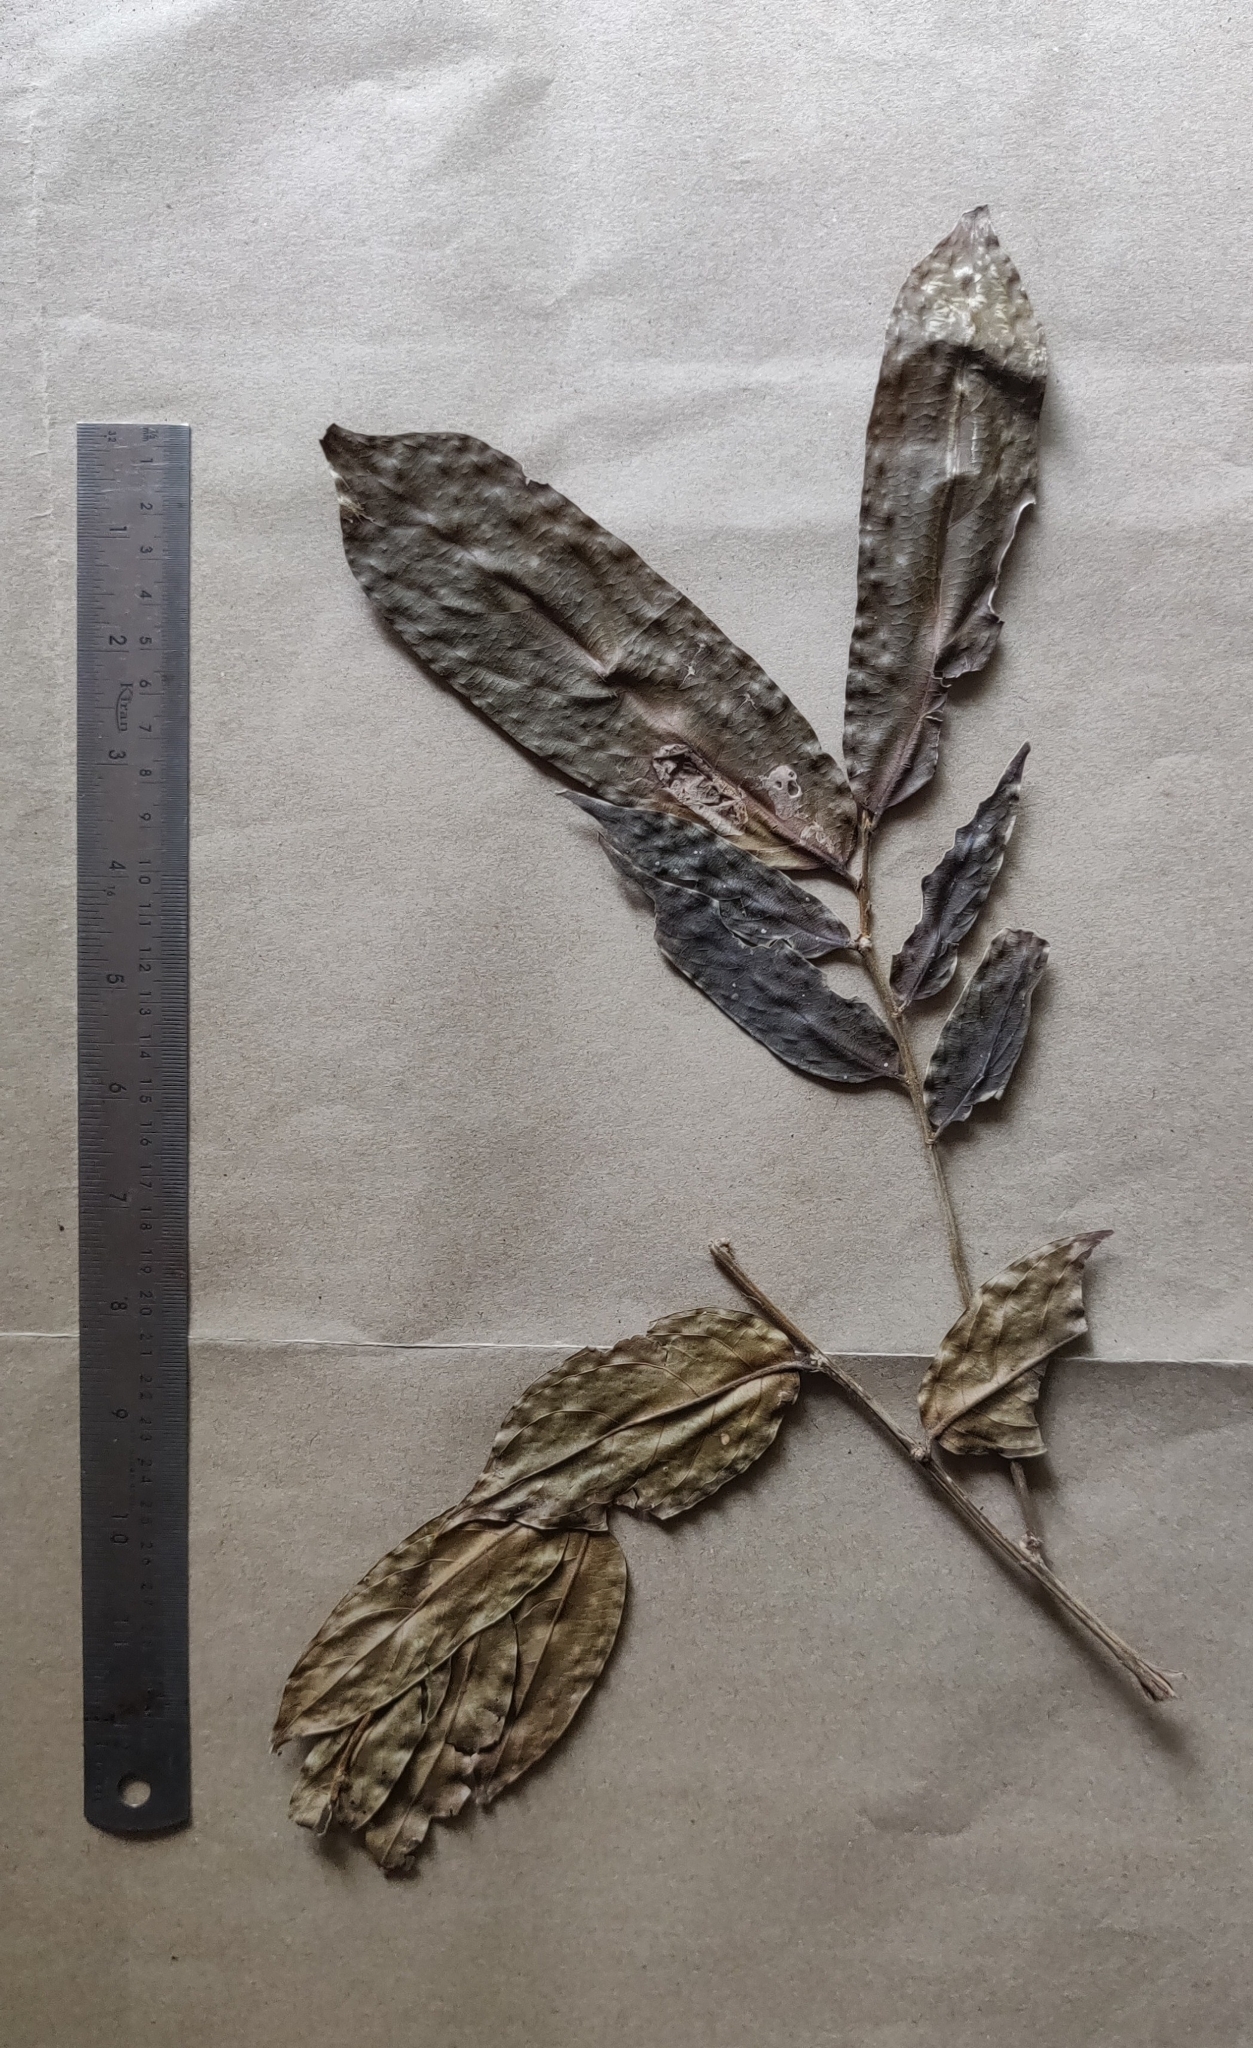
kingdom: Plantae
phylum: Tracheophyta
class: Magnoliopsida
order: Malpighiales
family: Putranjivaceae
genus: Drypetes
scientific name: Drypetes malabarica
